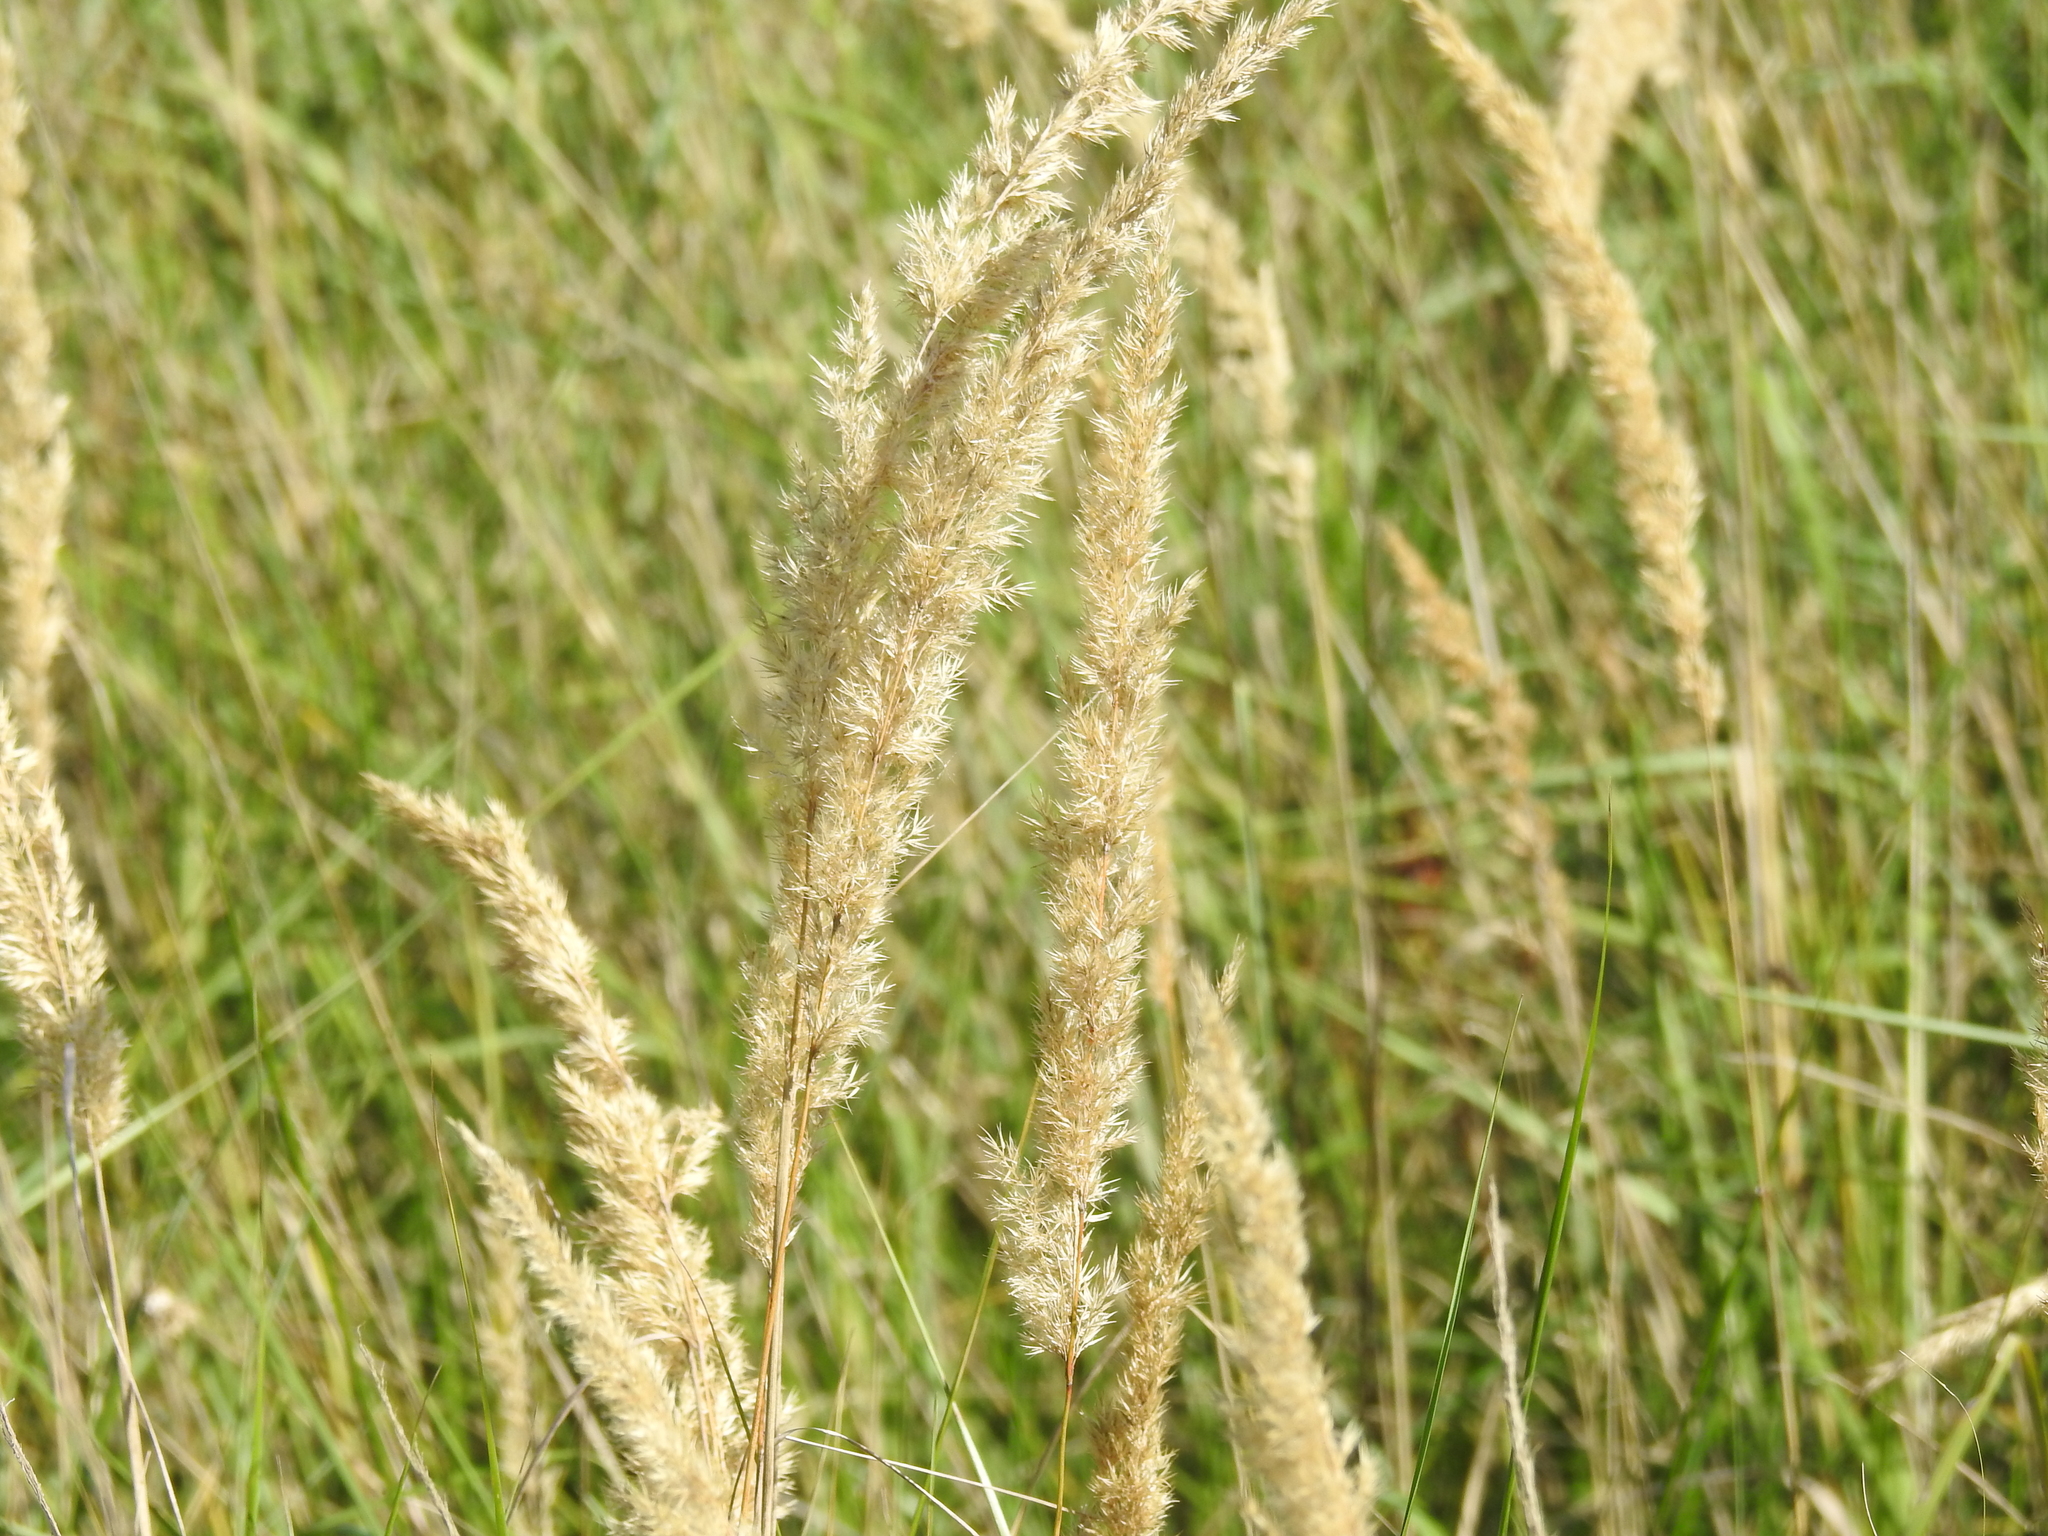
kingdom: Plantae
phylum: Tracheophyta
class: Liliopsida
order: Poales
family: Poaceae
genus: Calamagrostis
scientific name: Calamagrostis epigejos
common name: Wood small-reed
